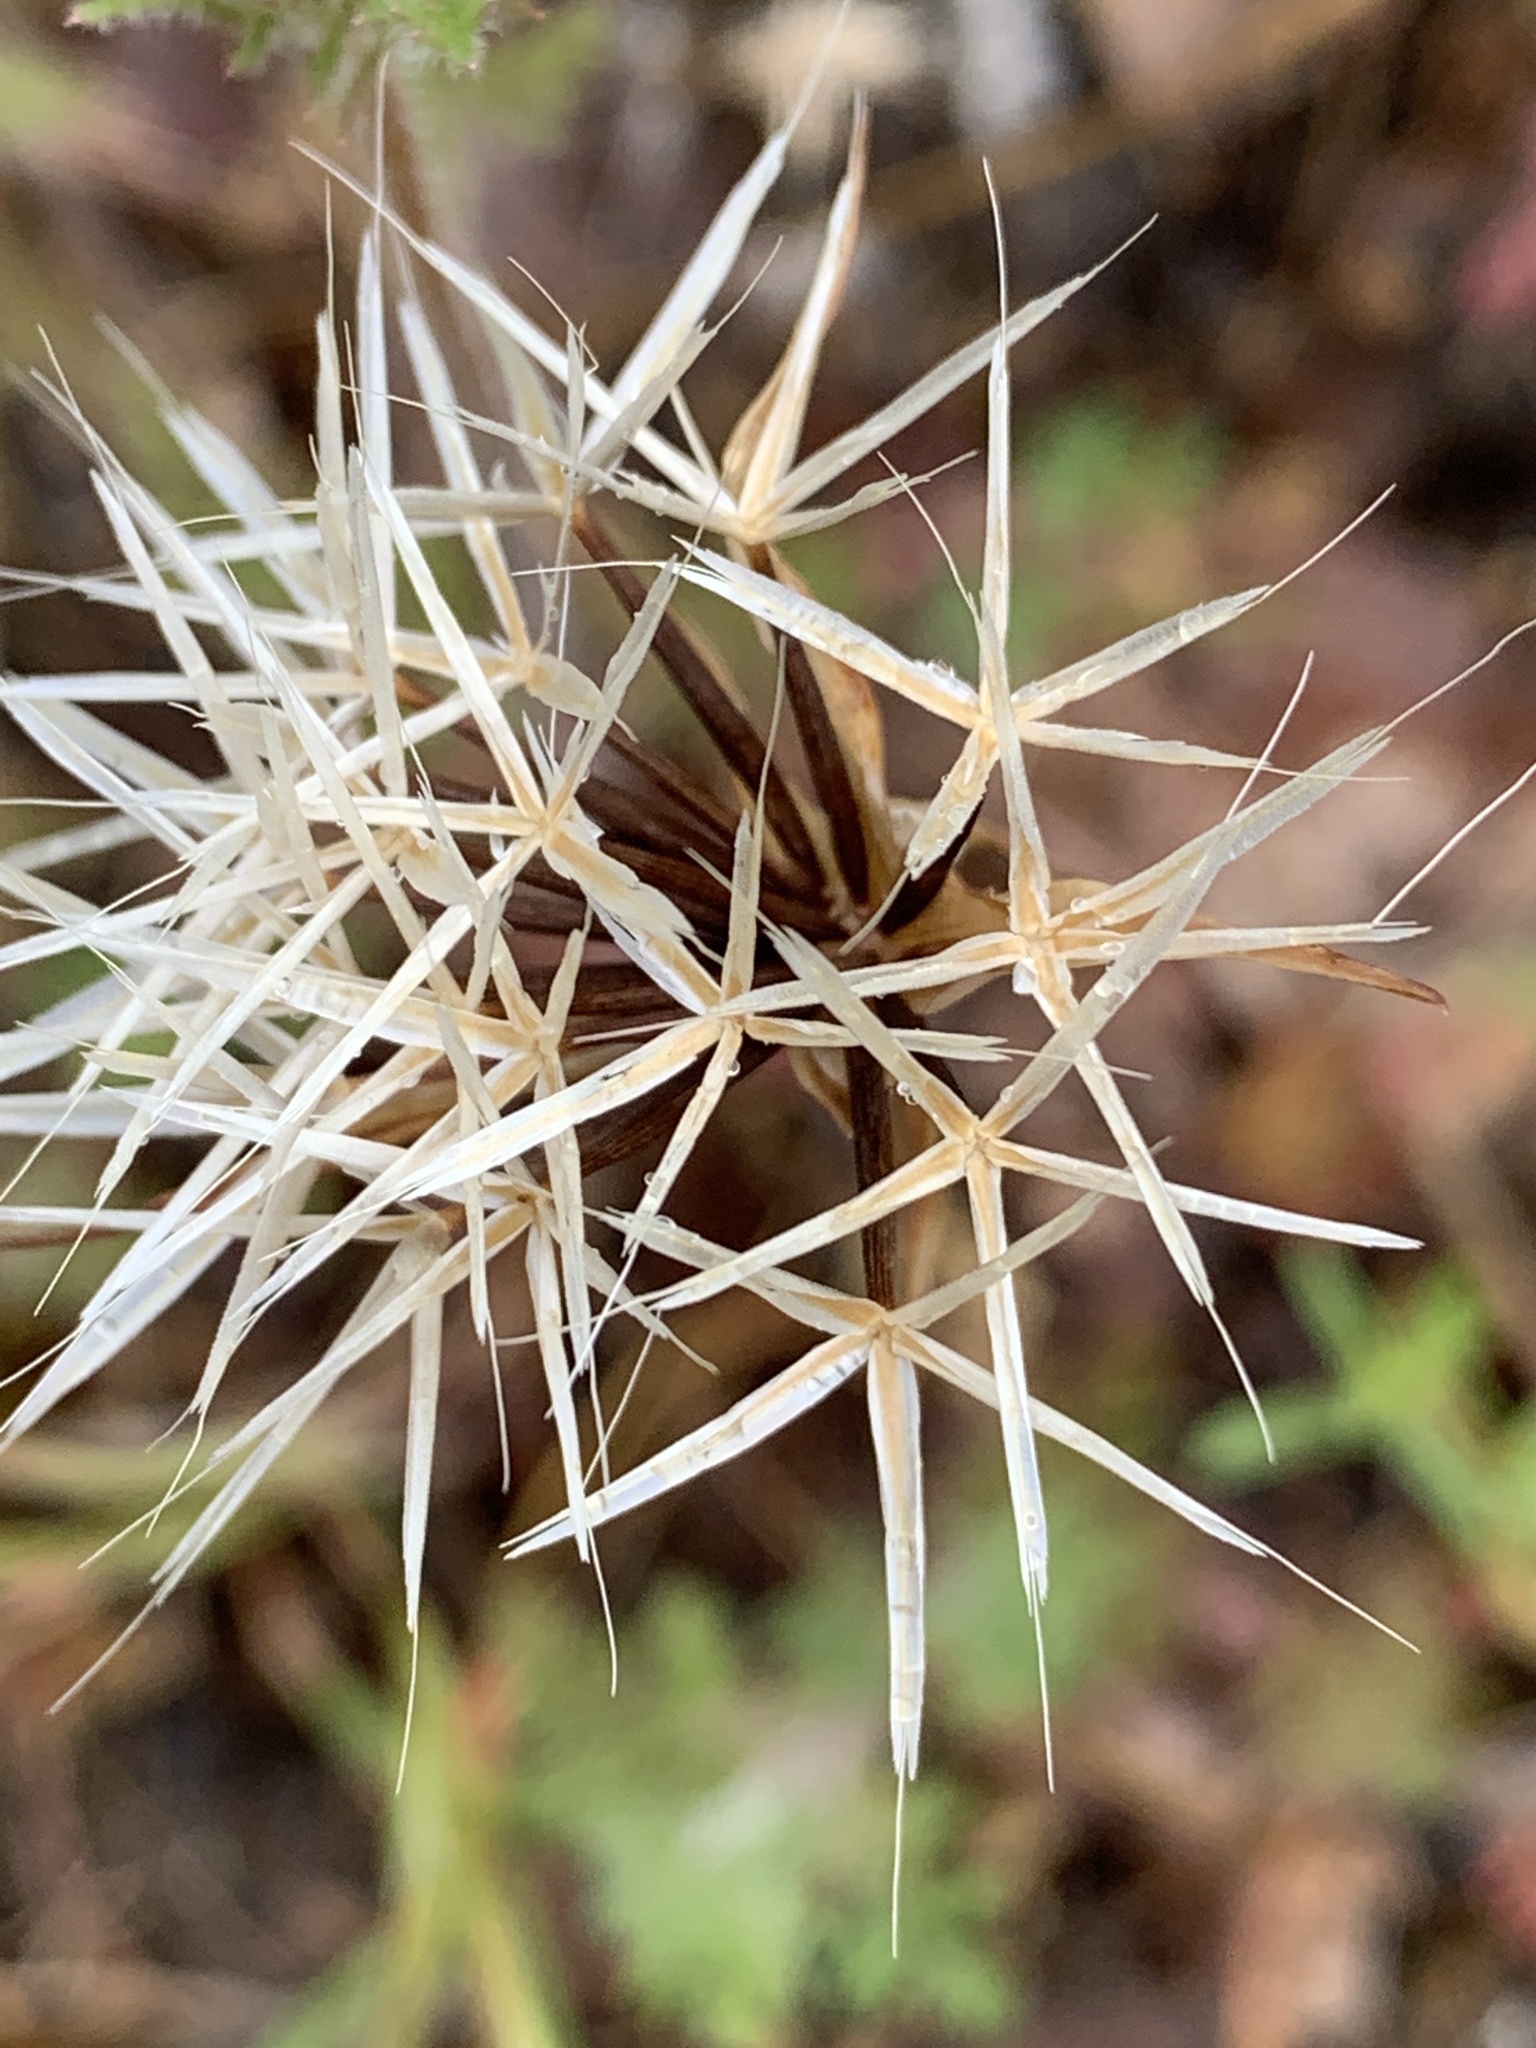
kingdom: Plantae
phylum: Tracheophyta
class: Magnoliopsida
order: Asterales
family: Asteraceae
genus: Microseris
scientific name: Microseris lindleyi
